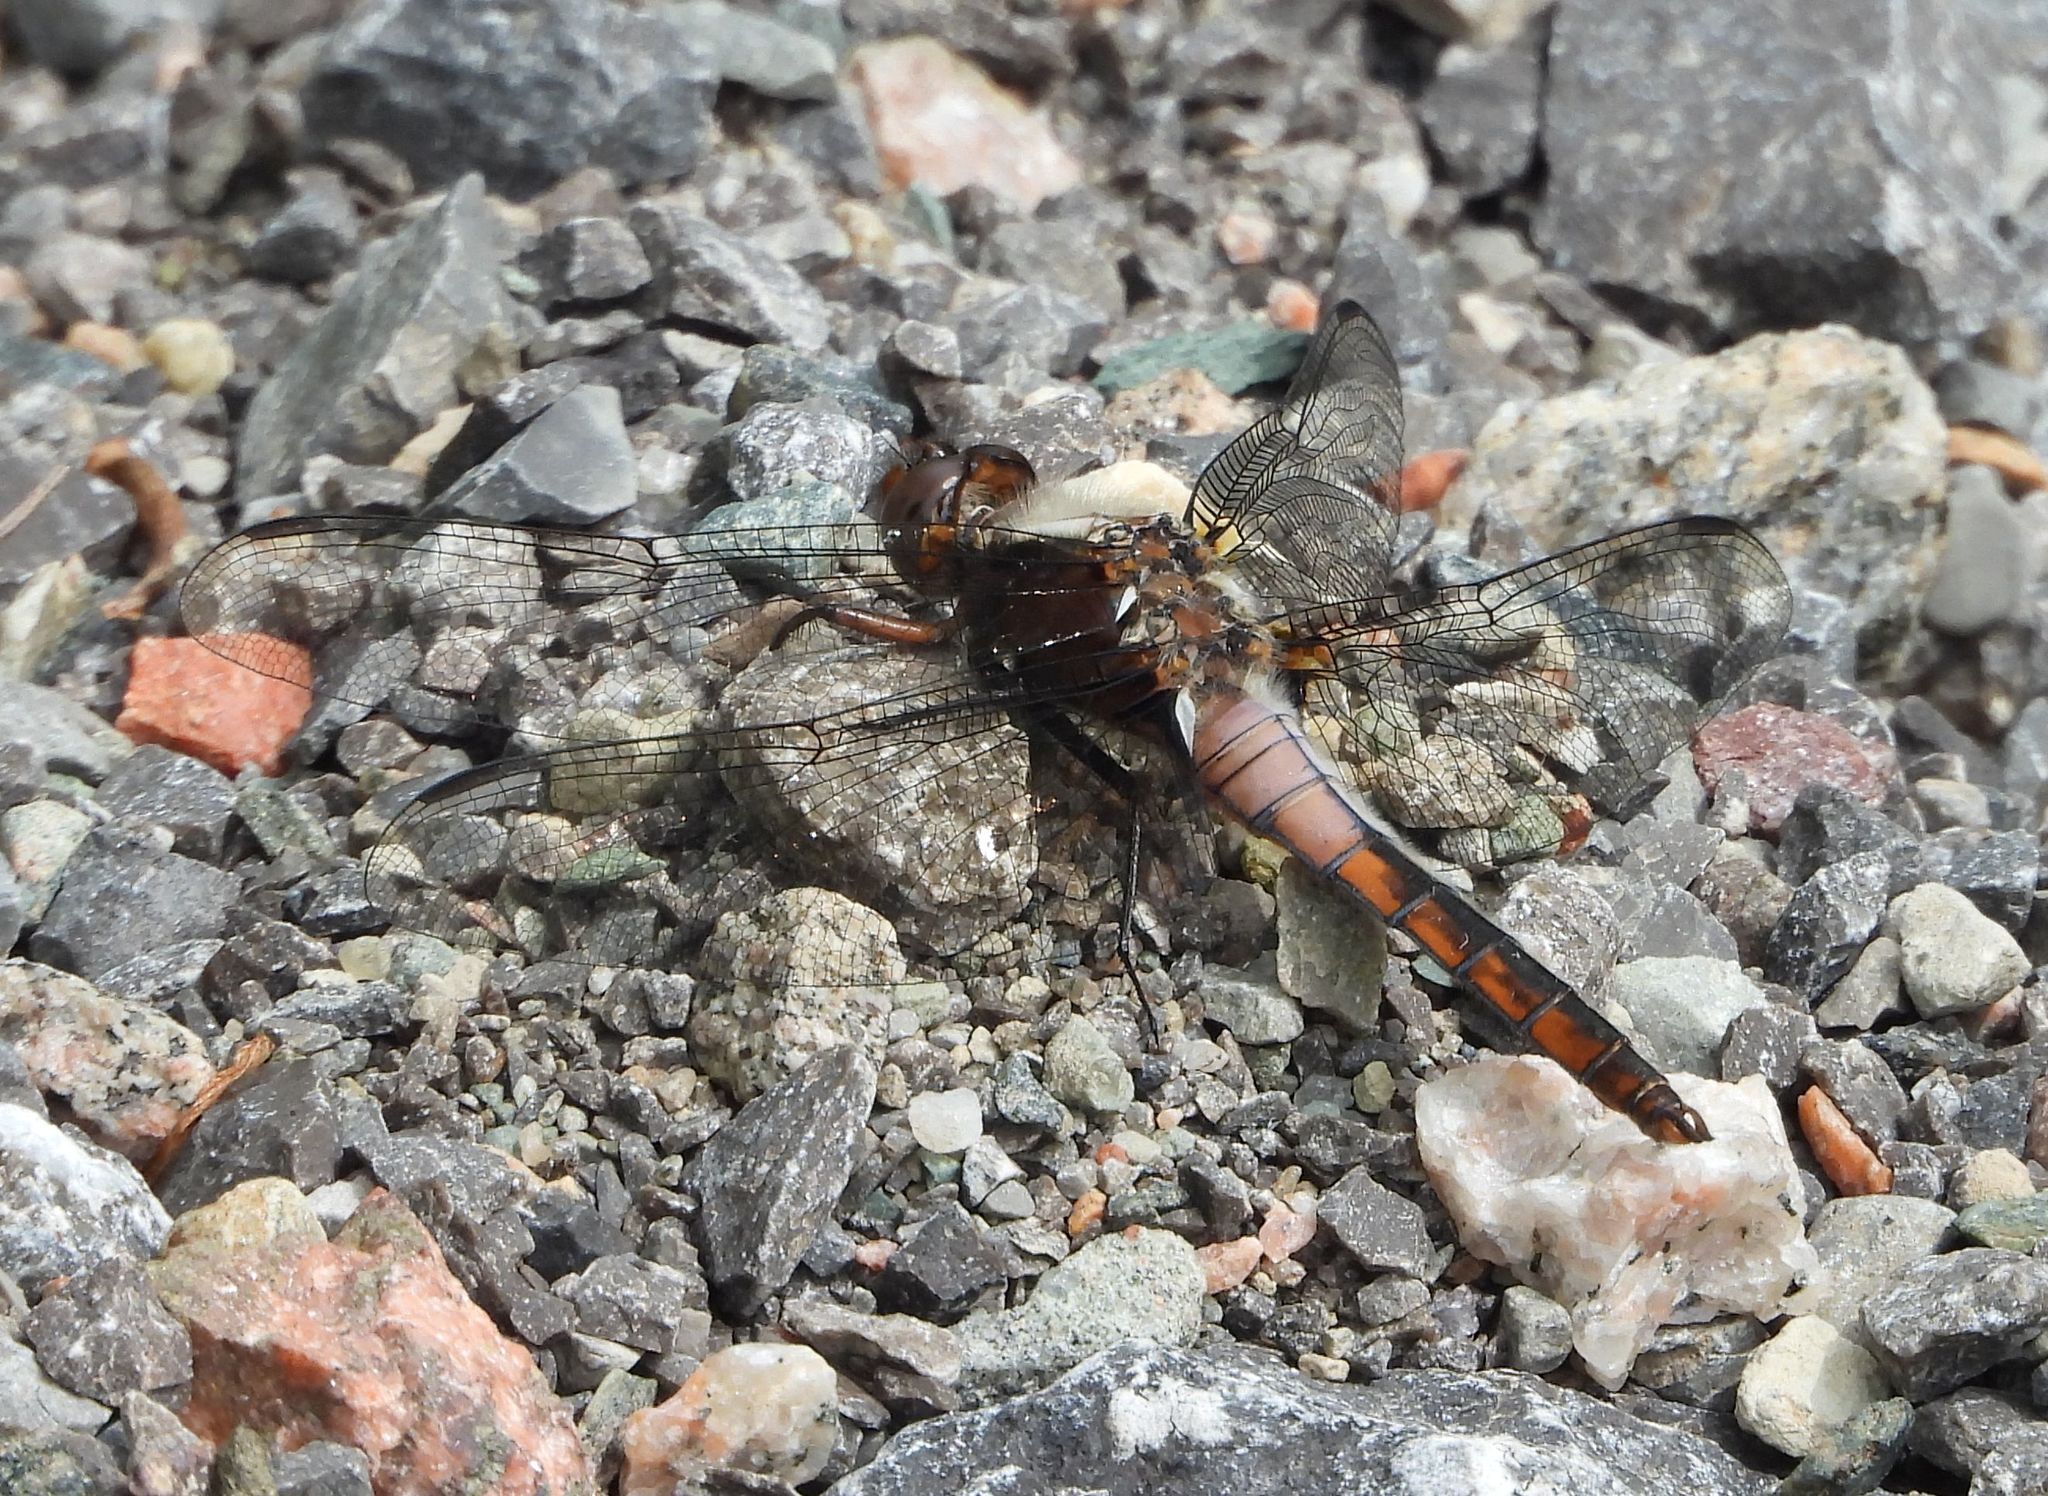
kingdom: Animalia
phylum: Arthropoda
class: Insecta
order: Odonata
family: Libellulidae
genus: Ladona
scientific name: Ladona julia
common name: Chalk-fronted corporal
